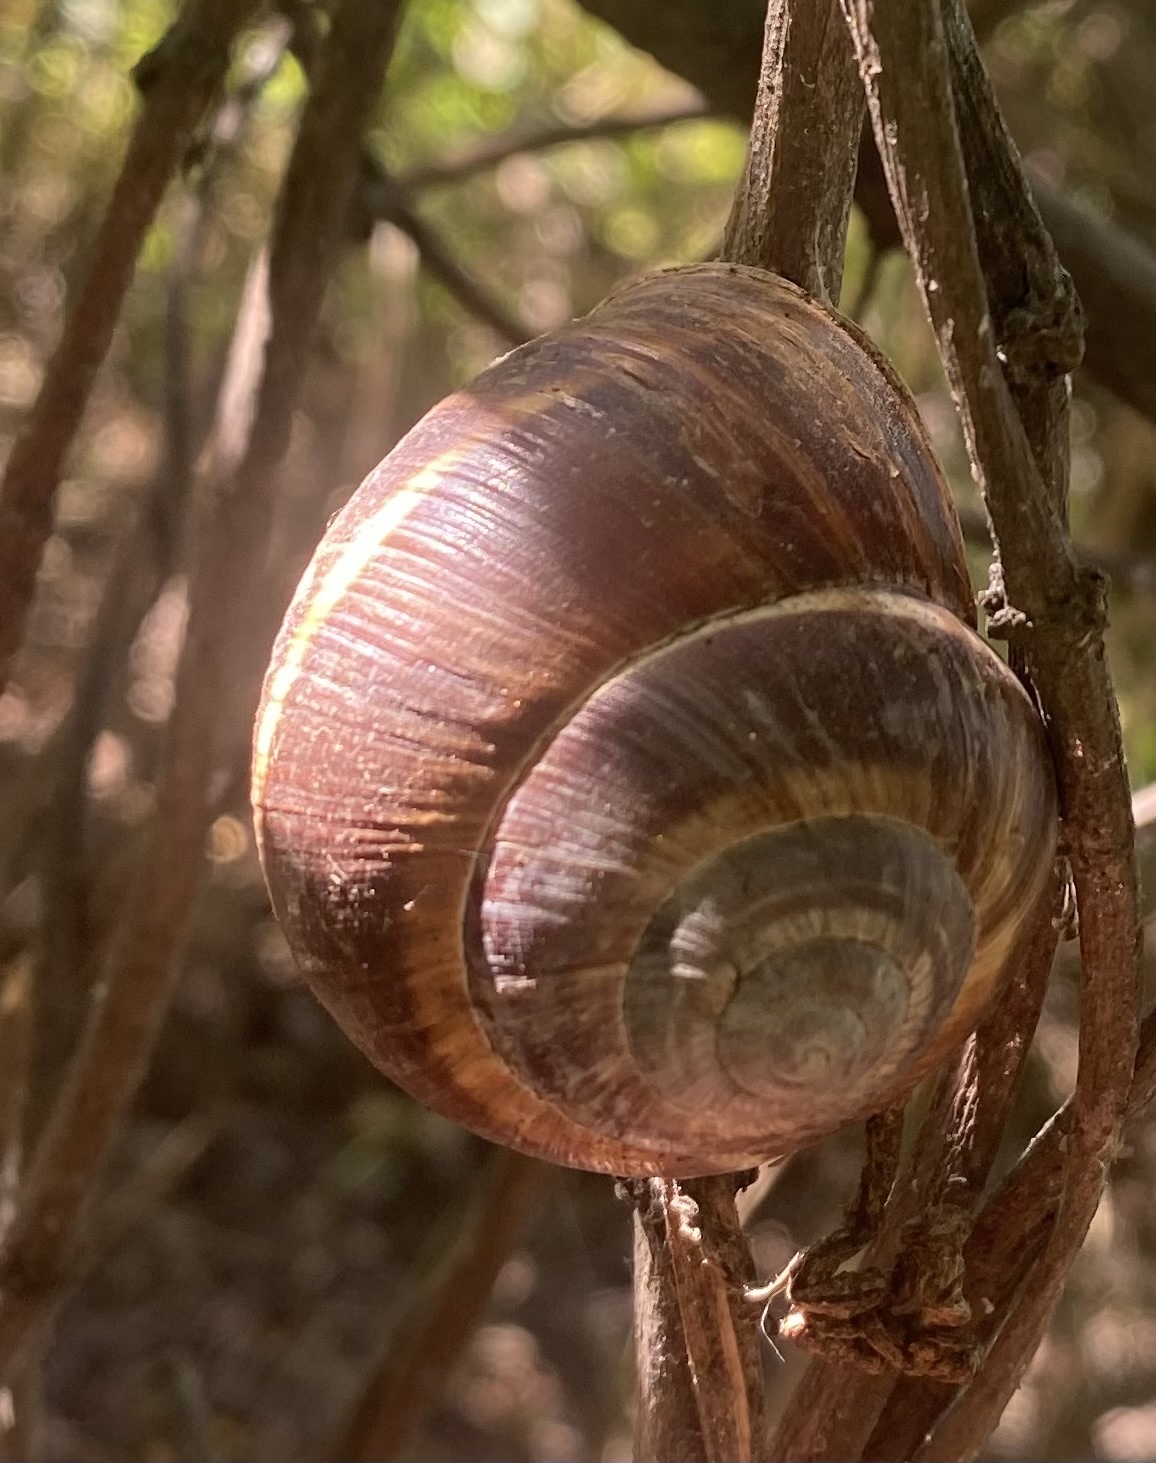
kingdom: Animalia
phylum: Mollusca
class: Gastropoda
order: Stylommatophora
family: Helicidae
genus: Helix
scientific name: Helix lucorum
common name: Turkish snail
